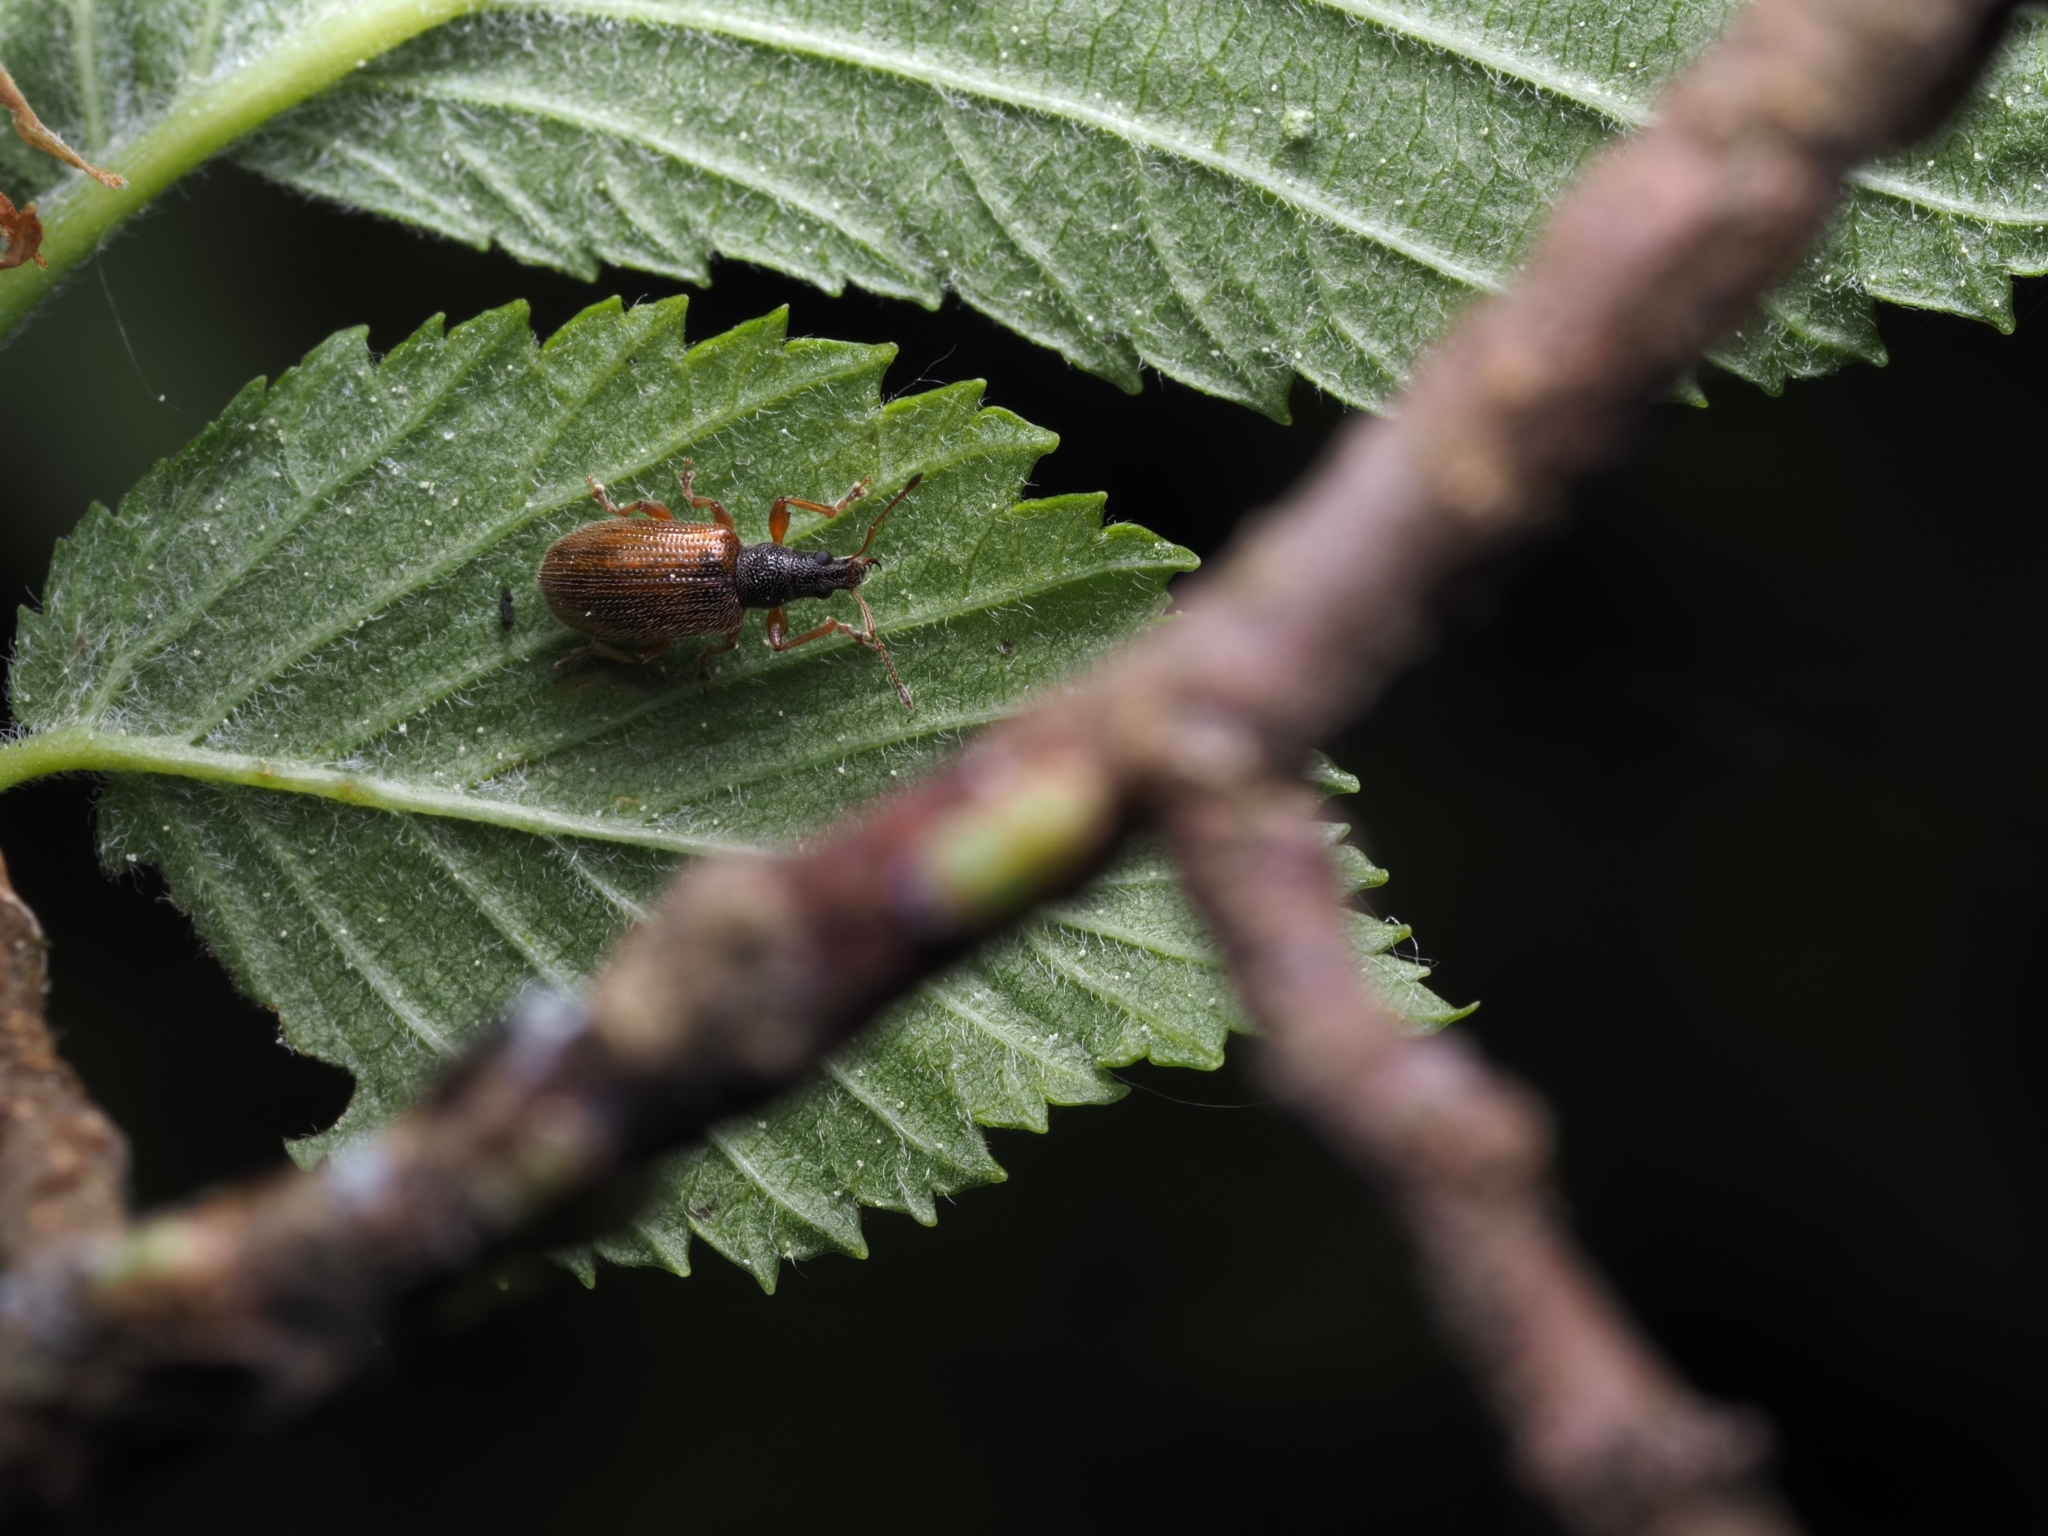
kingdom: Animalia
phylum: Arthropoda
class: Insecta
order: Coleoptera
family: Curculionidae
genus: Phyllobius
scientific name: Phyllobius oblongus
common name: Brown leaf weevil
